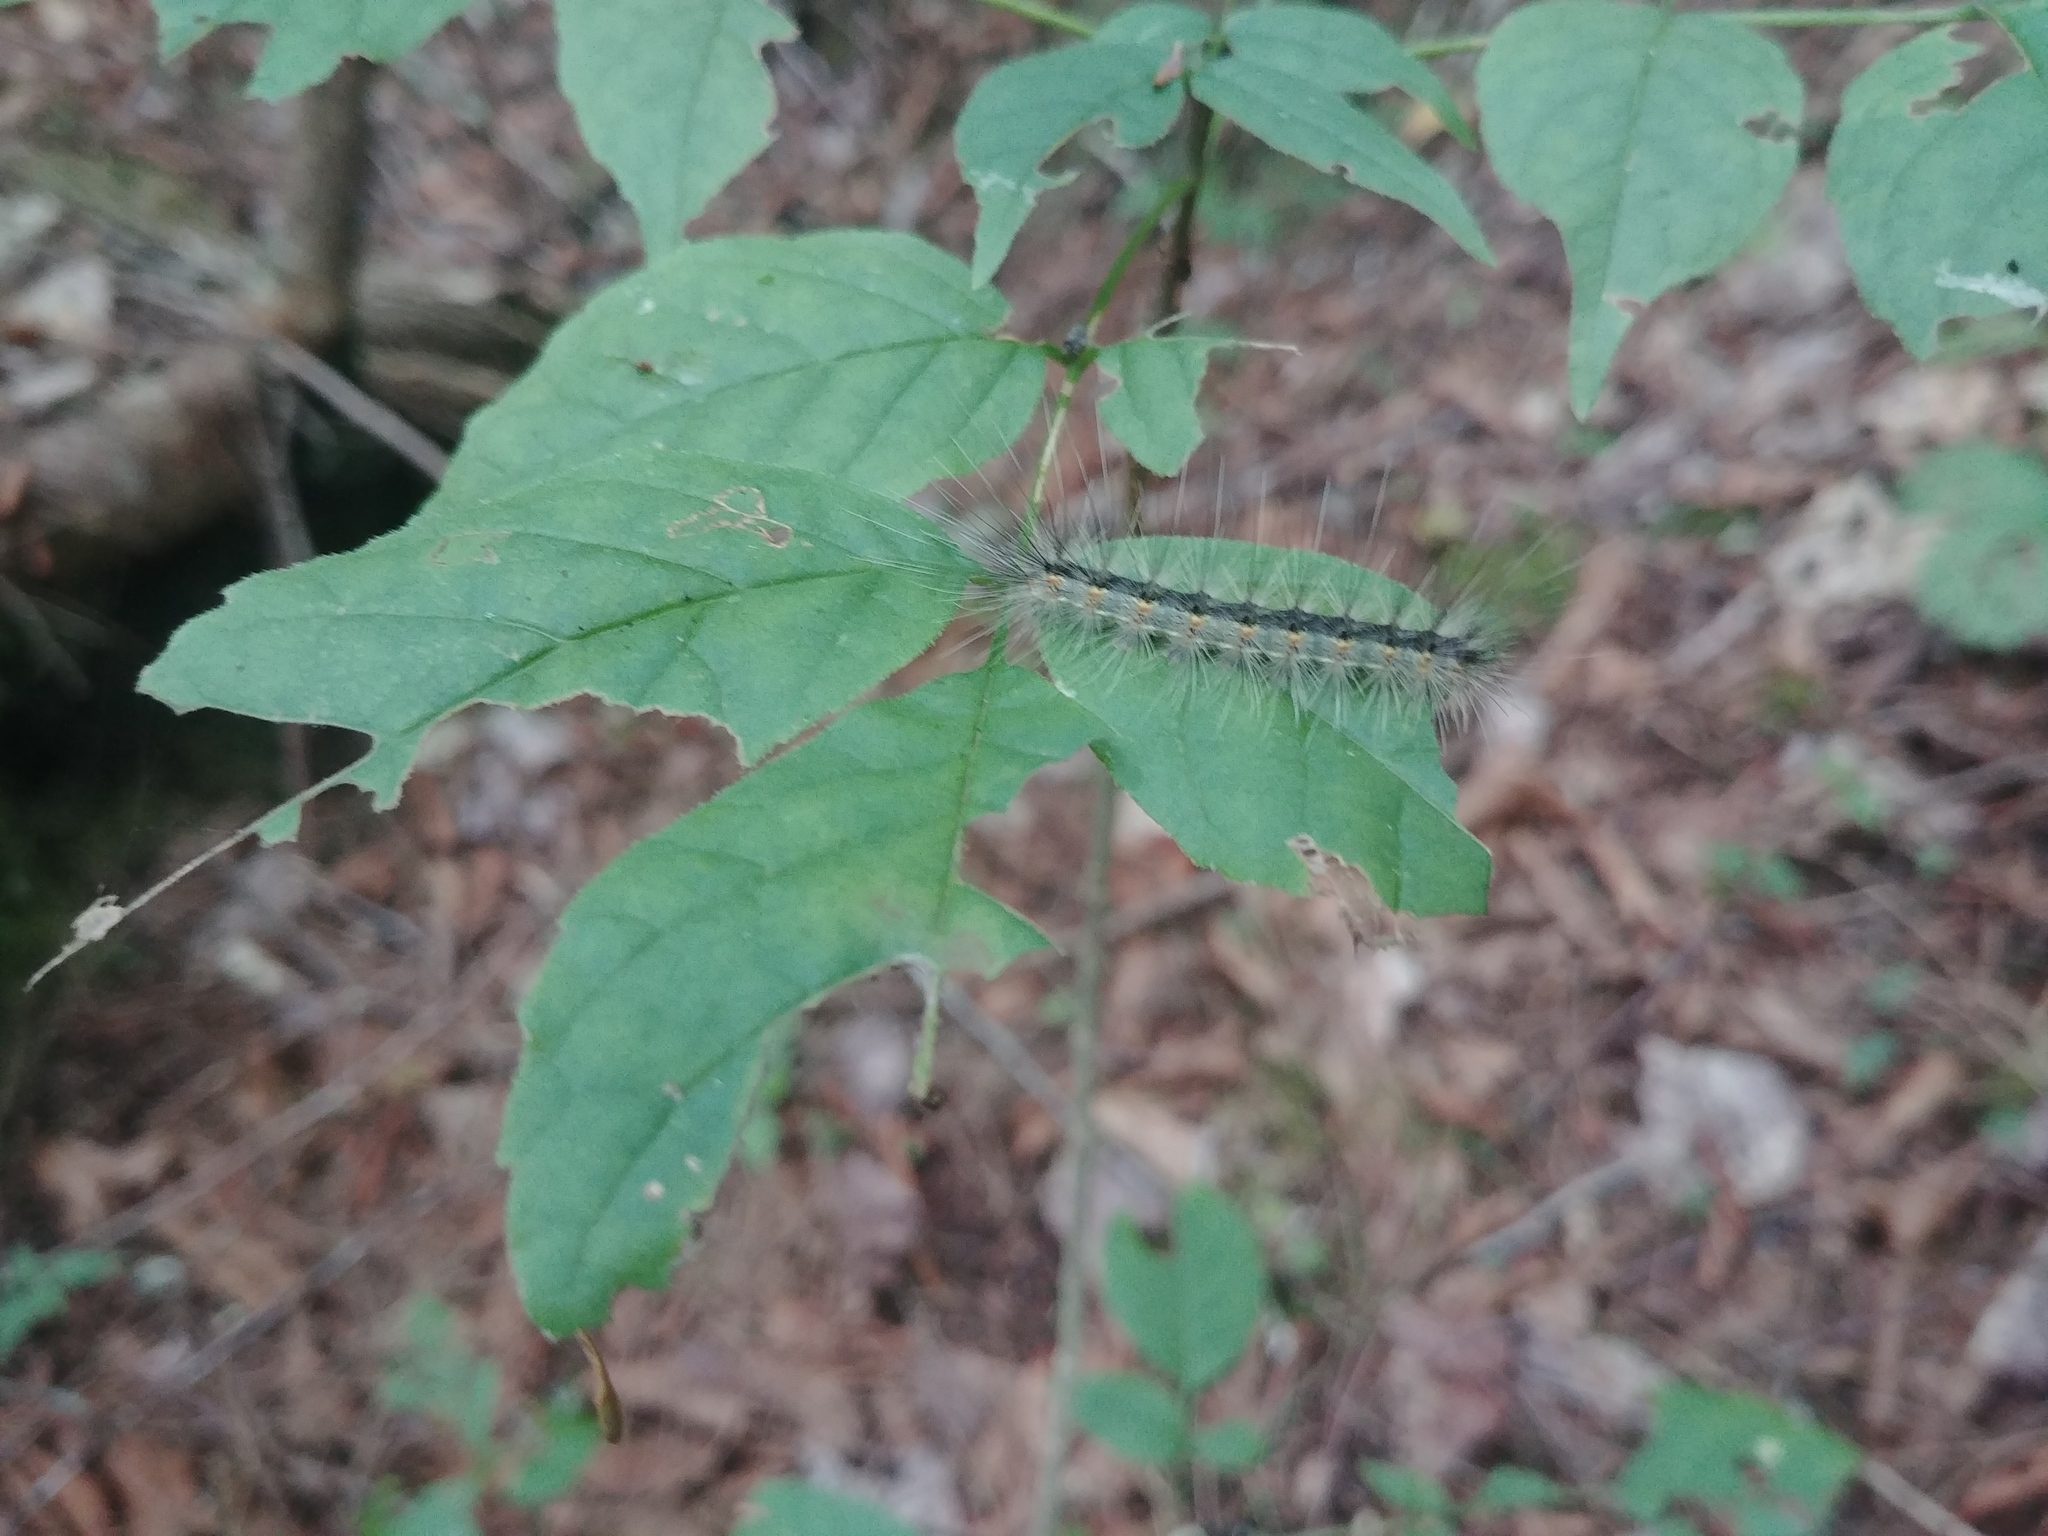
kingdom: Animalia
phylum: Arthropoda
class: Insecta
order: Lepidoptera
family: Erebidae
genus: Hyphantria
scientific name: Hyphantria cunea
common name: American white moth
